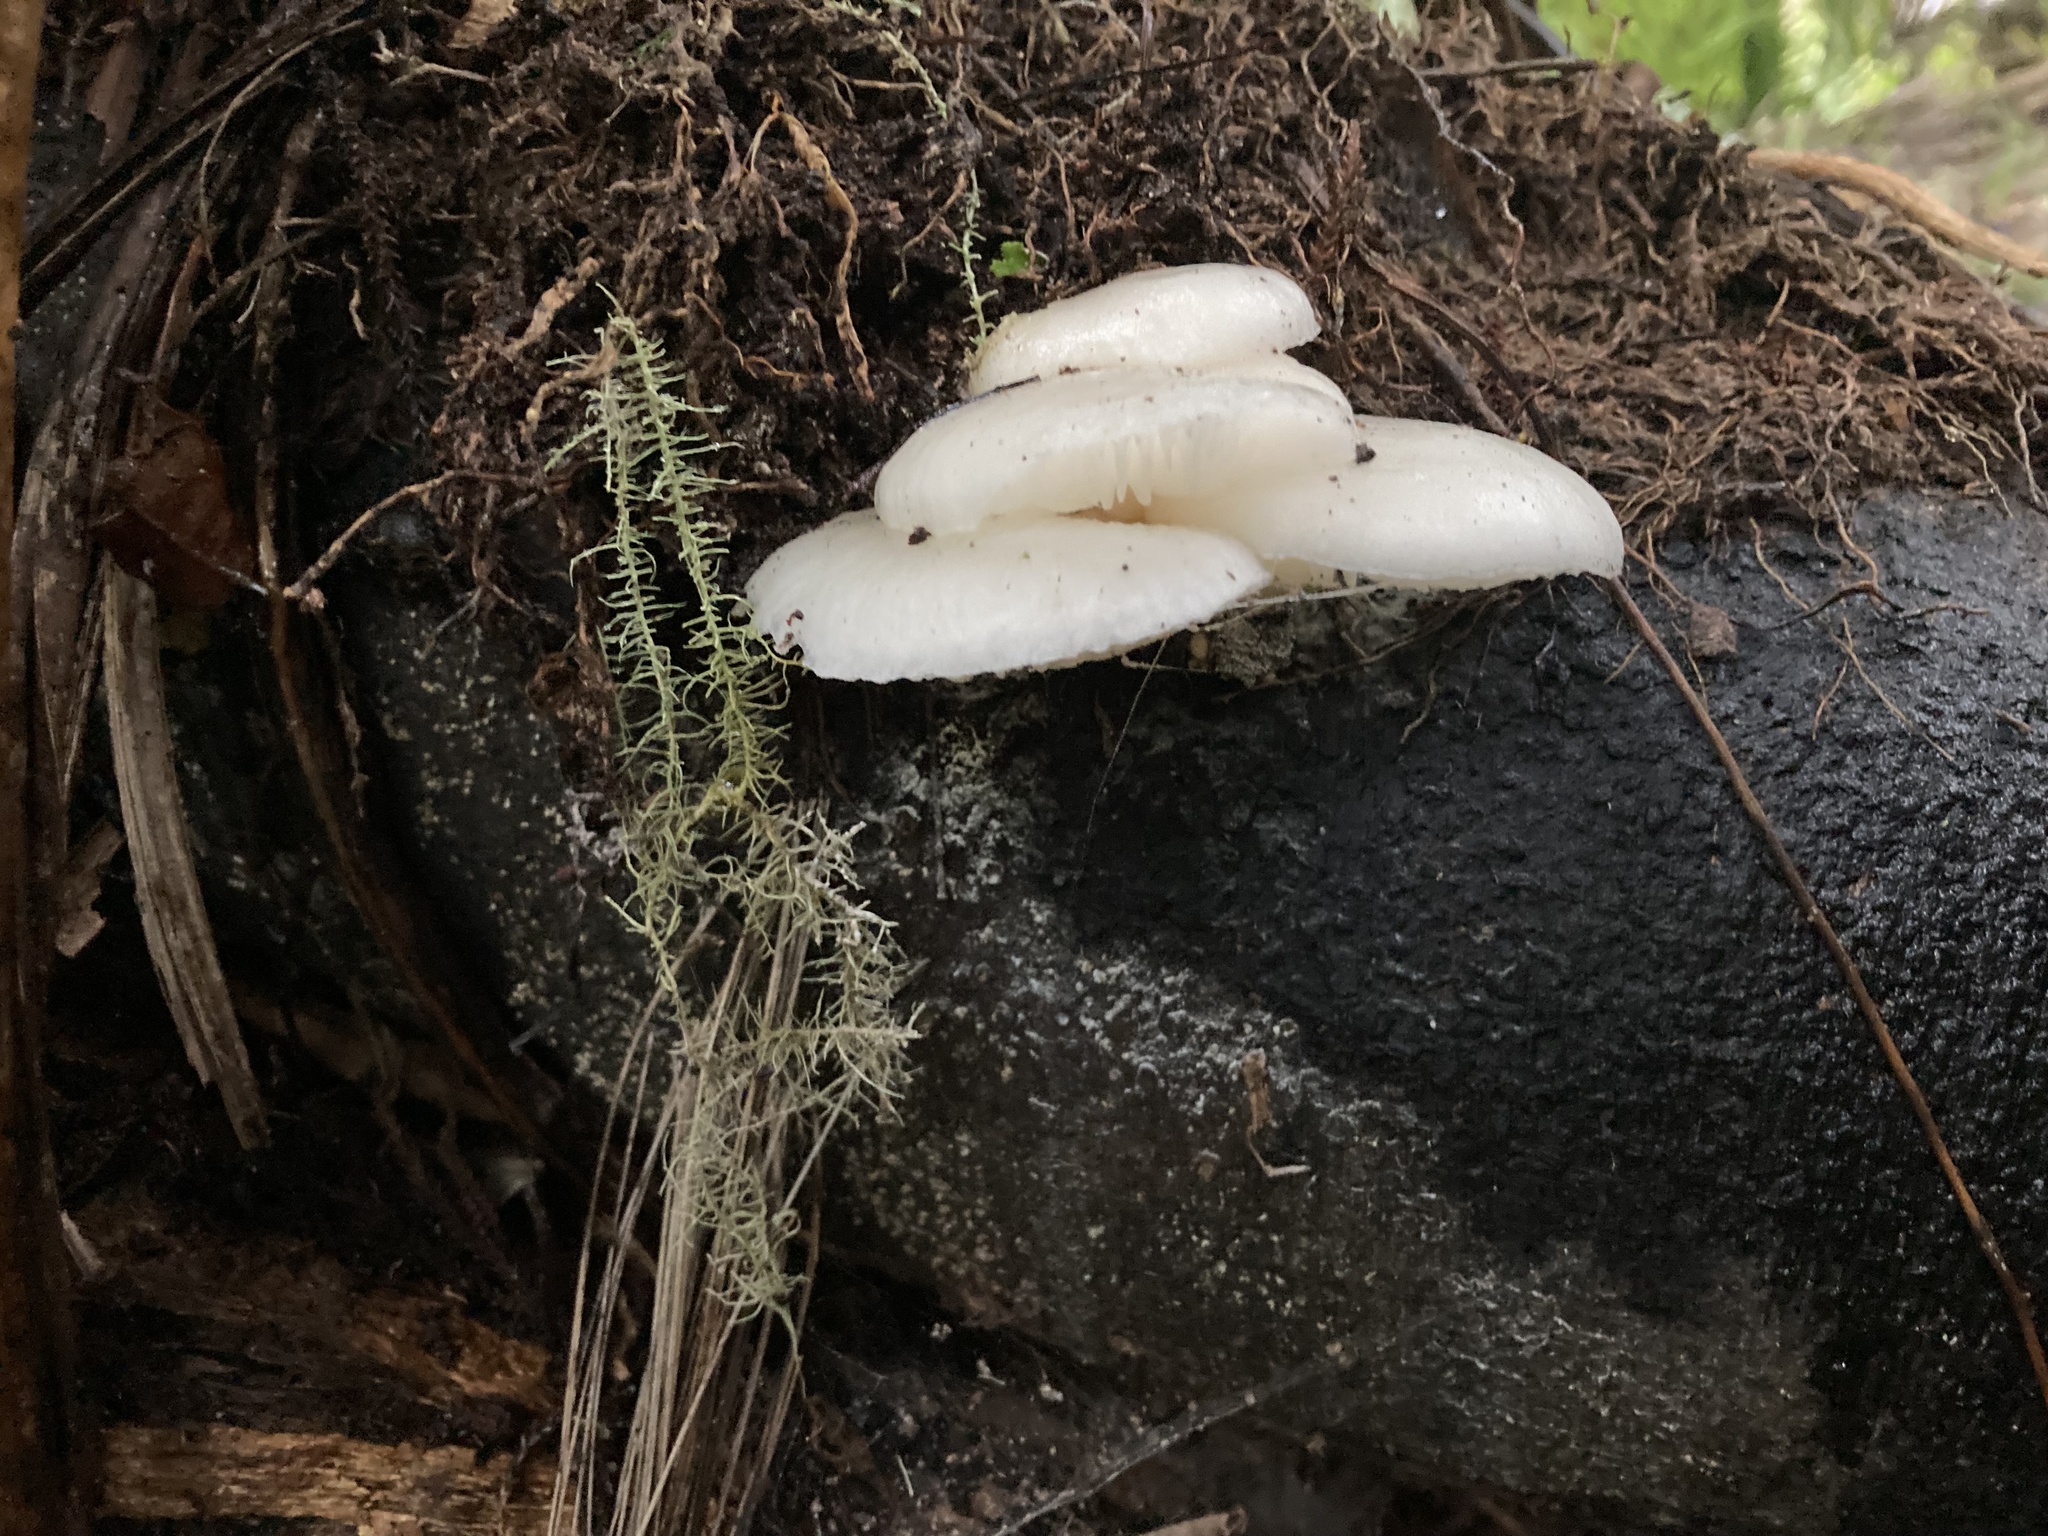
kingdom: Fungi
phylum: Basidiomycota
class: Agaricomycetes
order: Agaricales
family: Physalacriaceae
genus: Oudemansiella
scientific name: Oudemansiella australis
